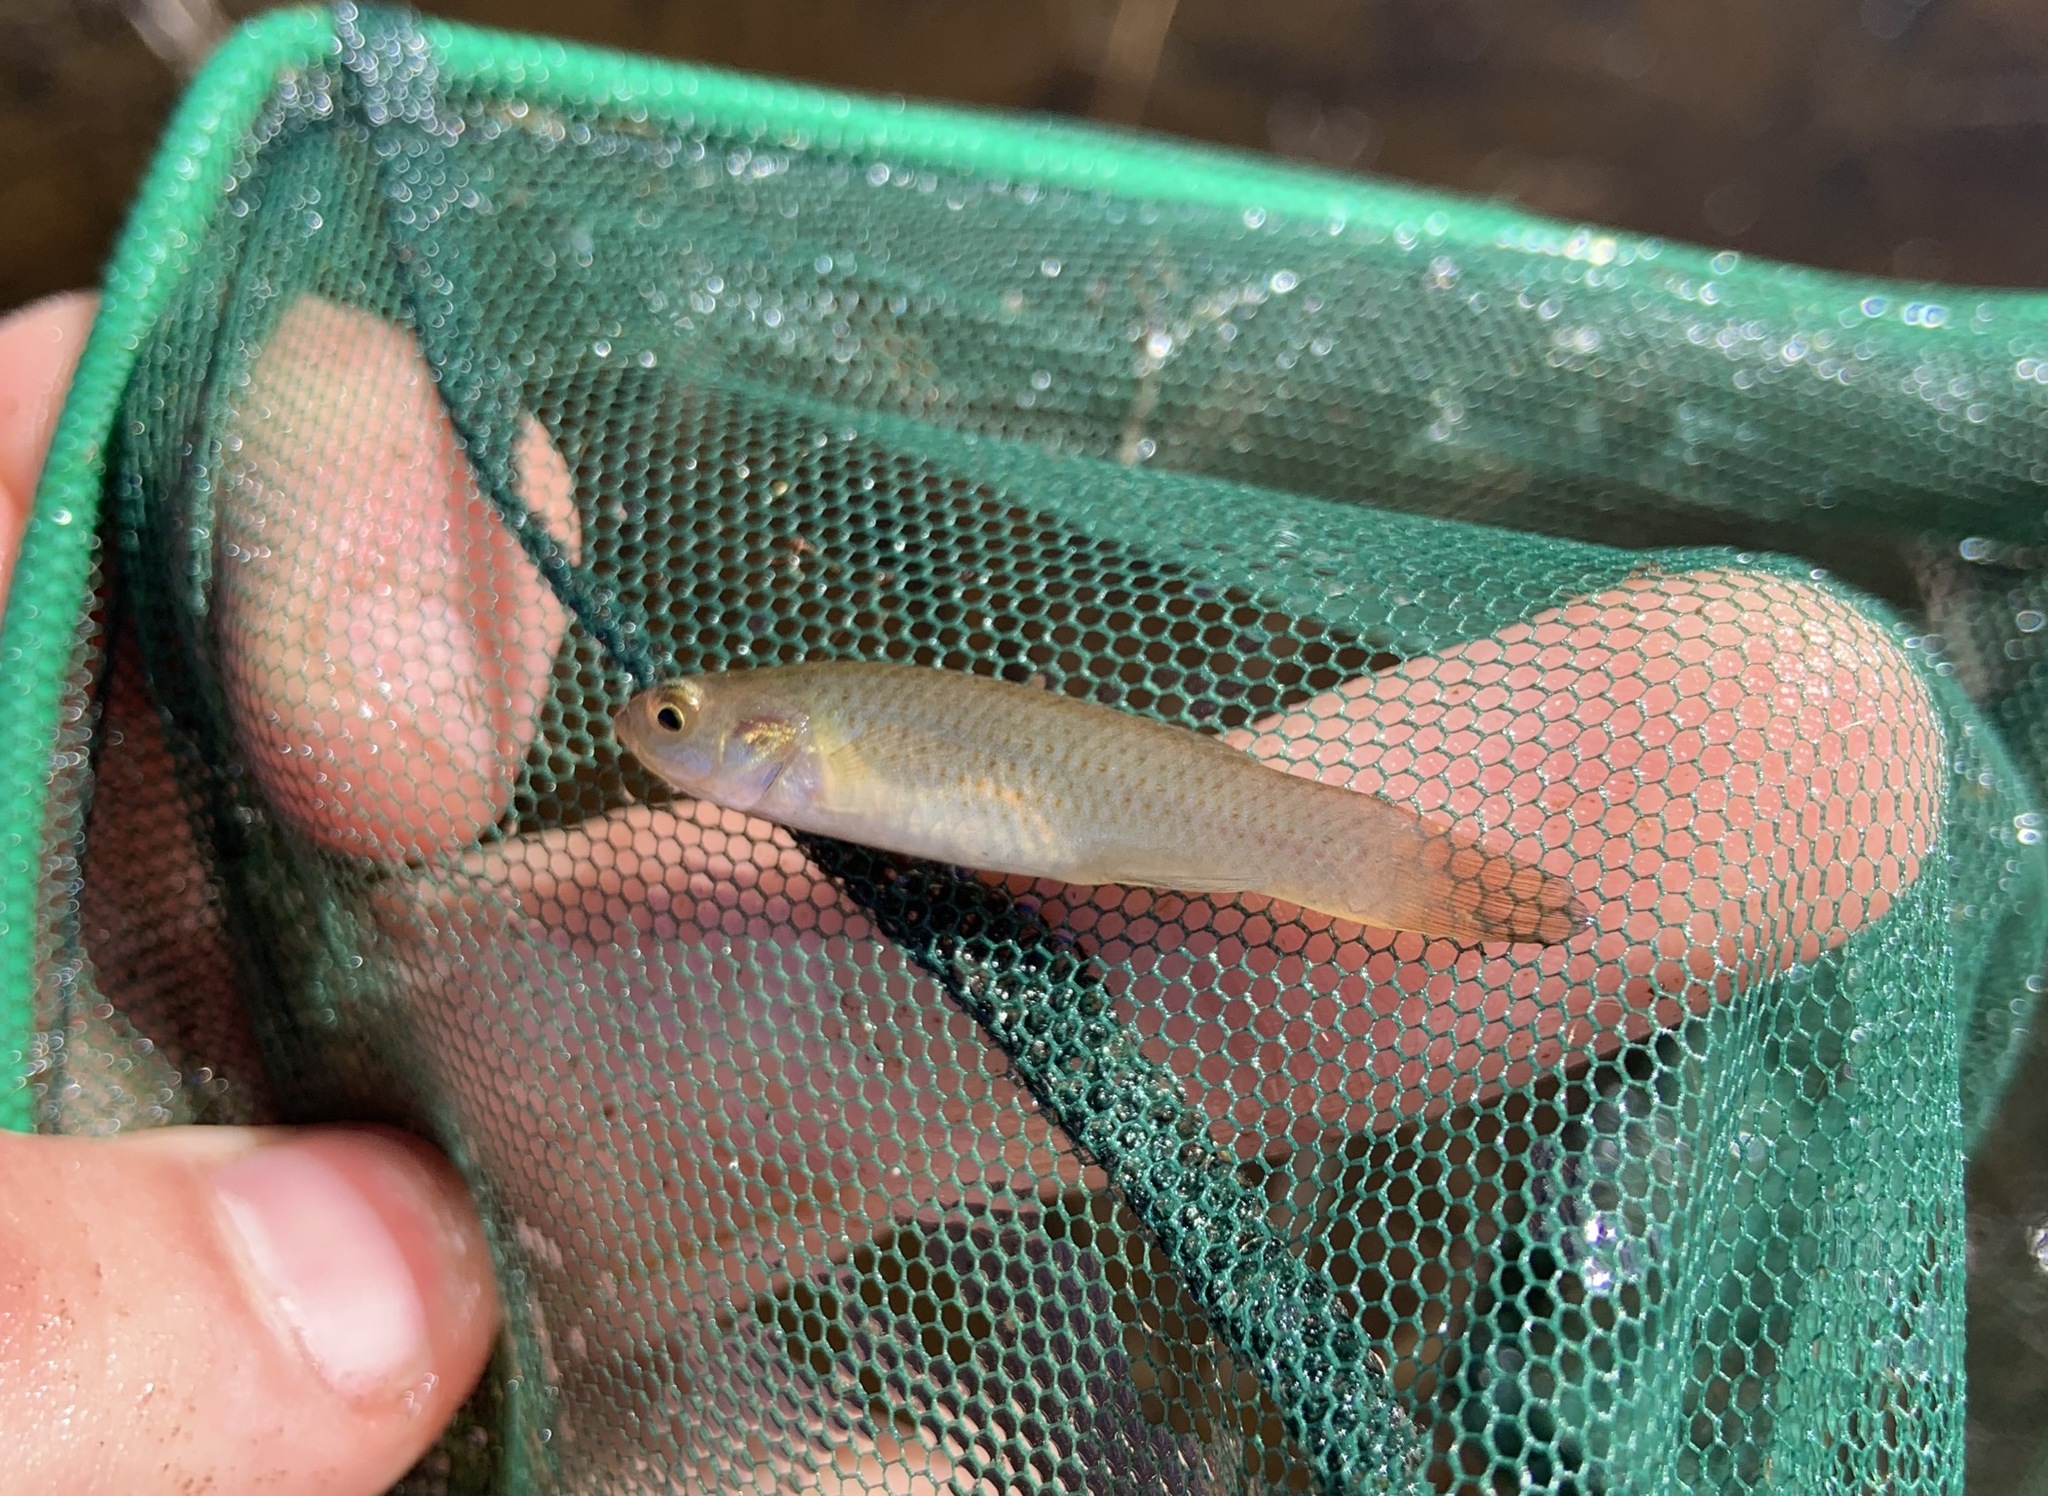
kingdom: Animalia
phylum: Chordata
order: Cyprinodontiformes
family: Fundulidae
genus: Fundulus
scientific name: Fundulus chrysotus
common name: Golden topminnow
